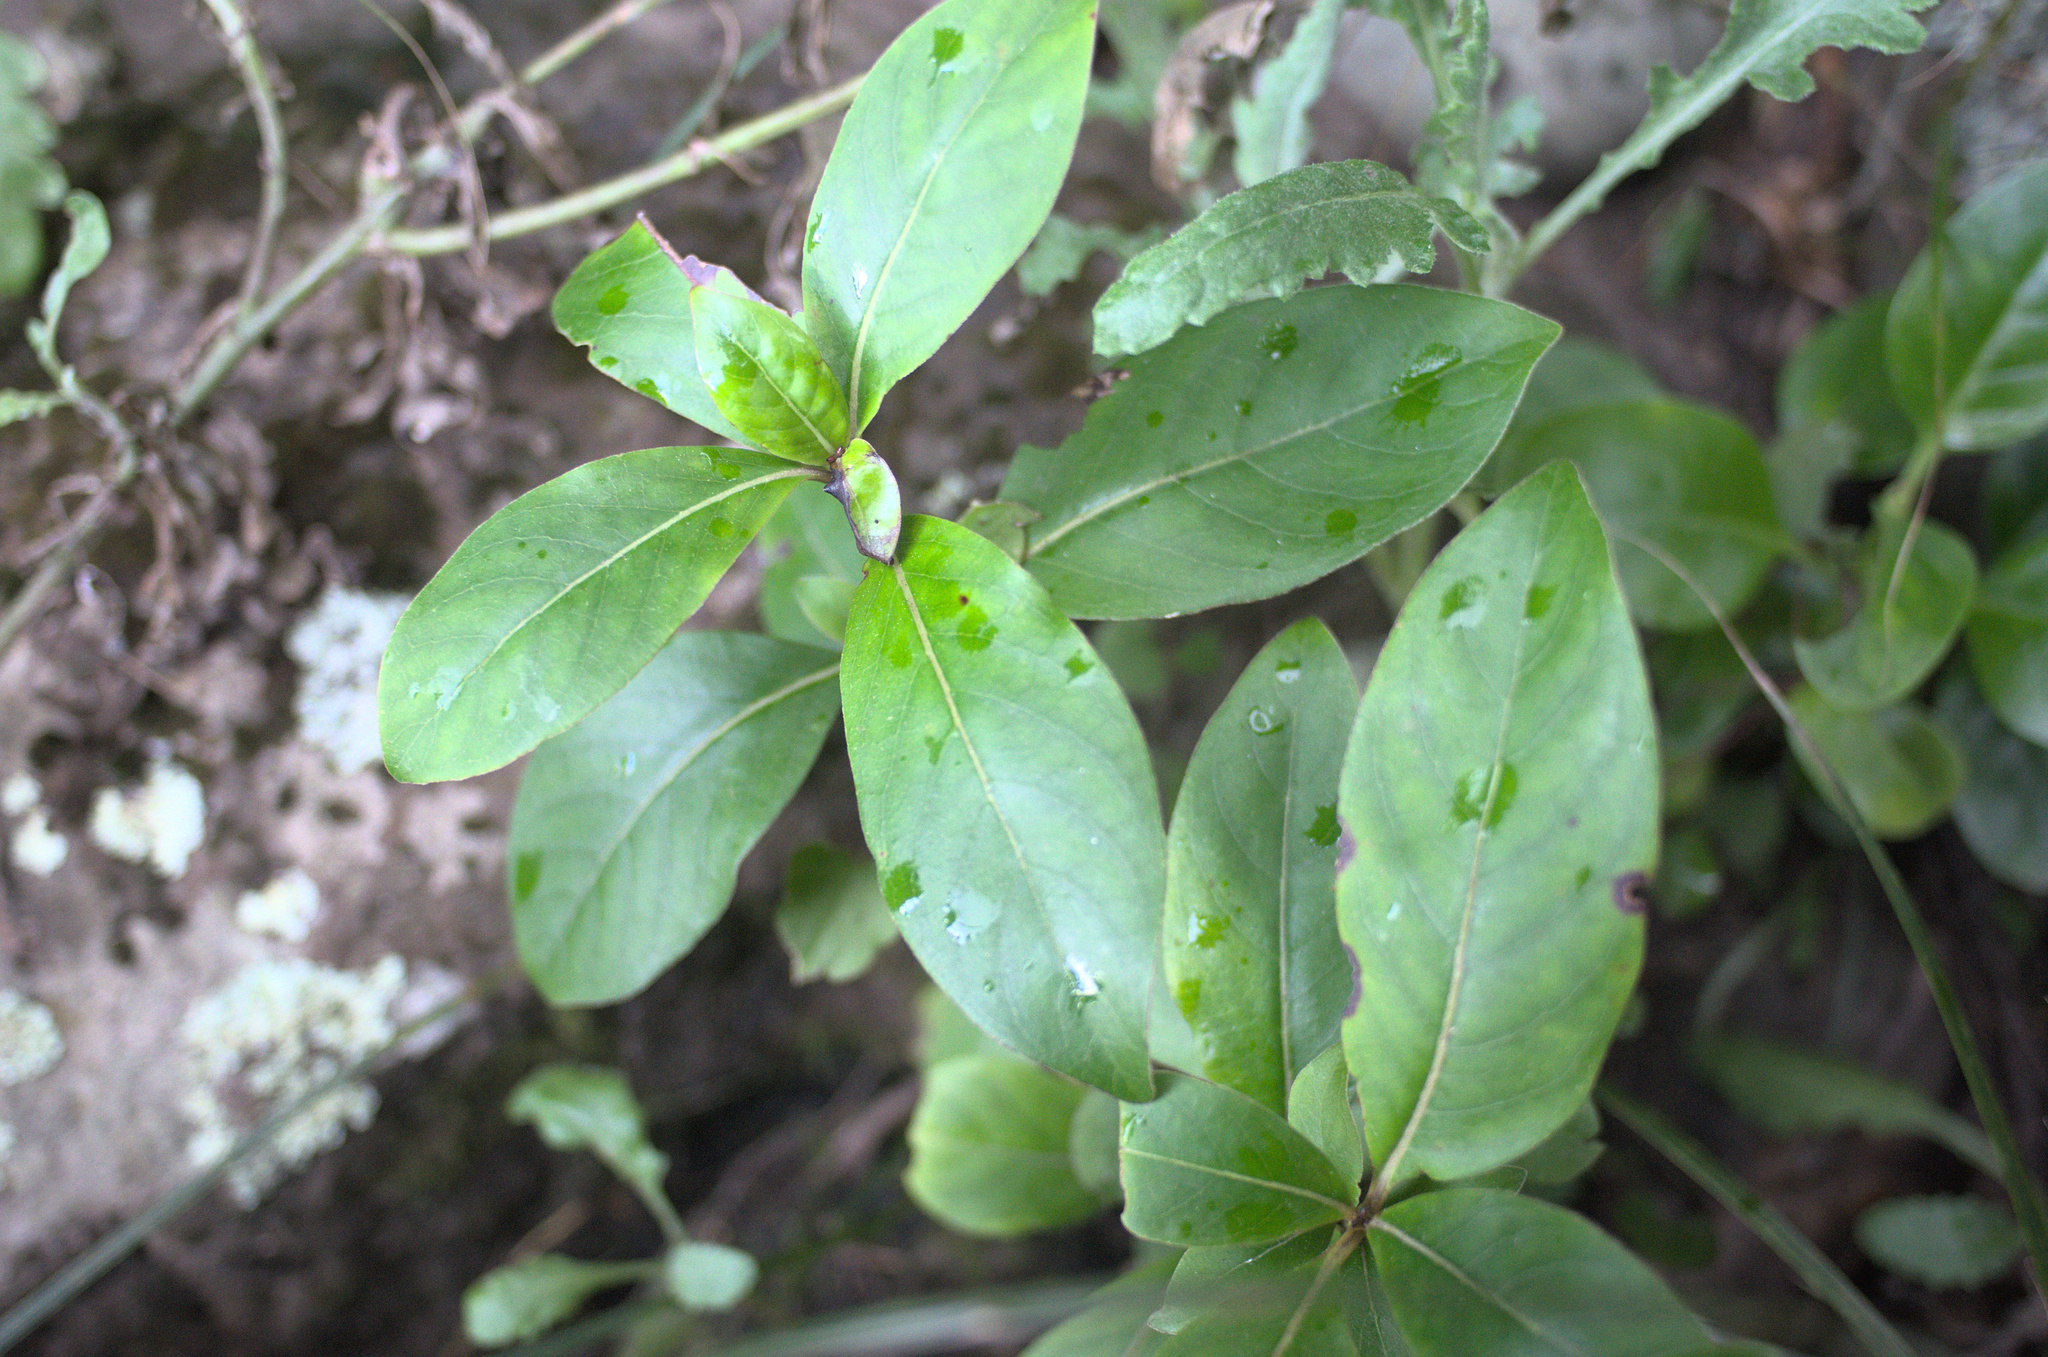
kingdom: Plantae
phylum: Tracheophyta
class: Magnoliopsida
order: Gentianales
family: Rubiaceae
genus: Coprosma
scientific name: Coprosma robusta
